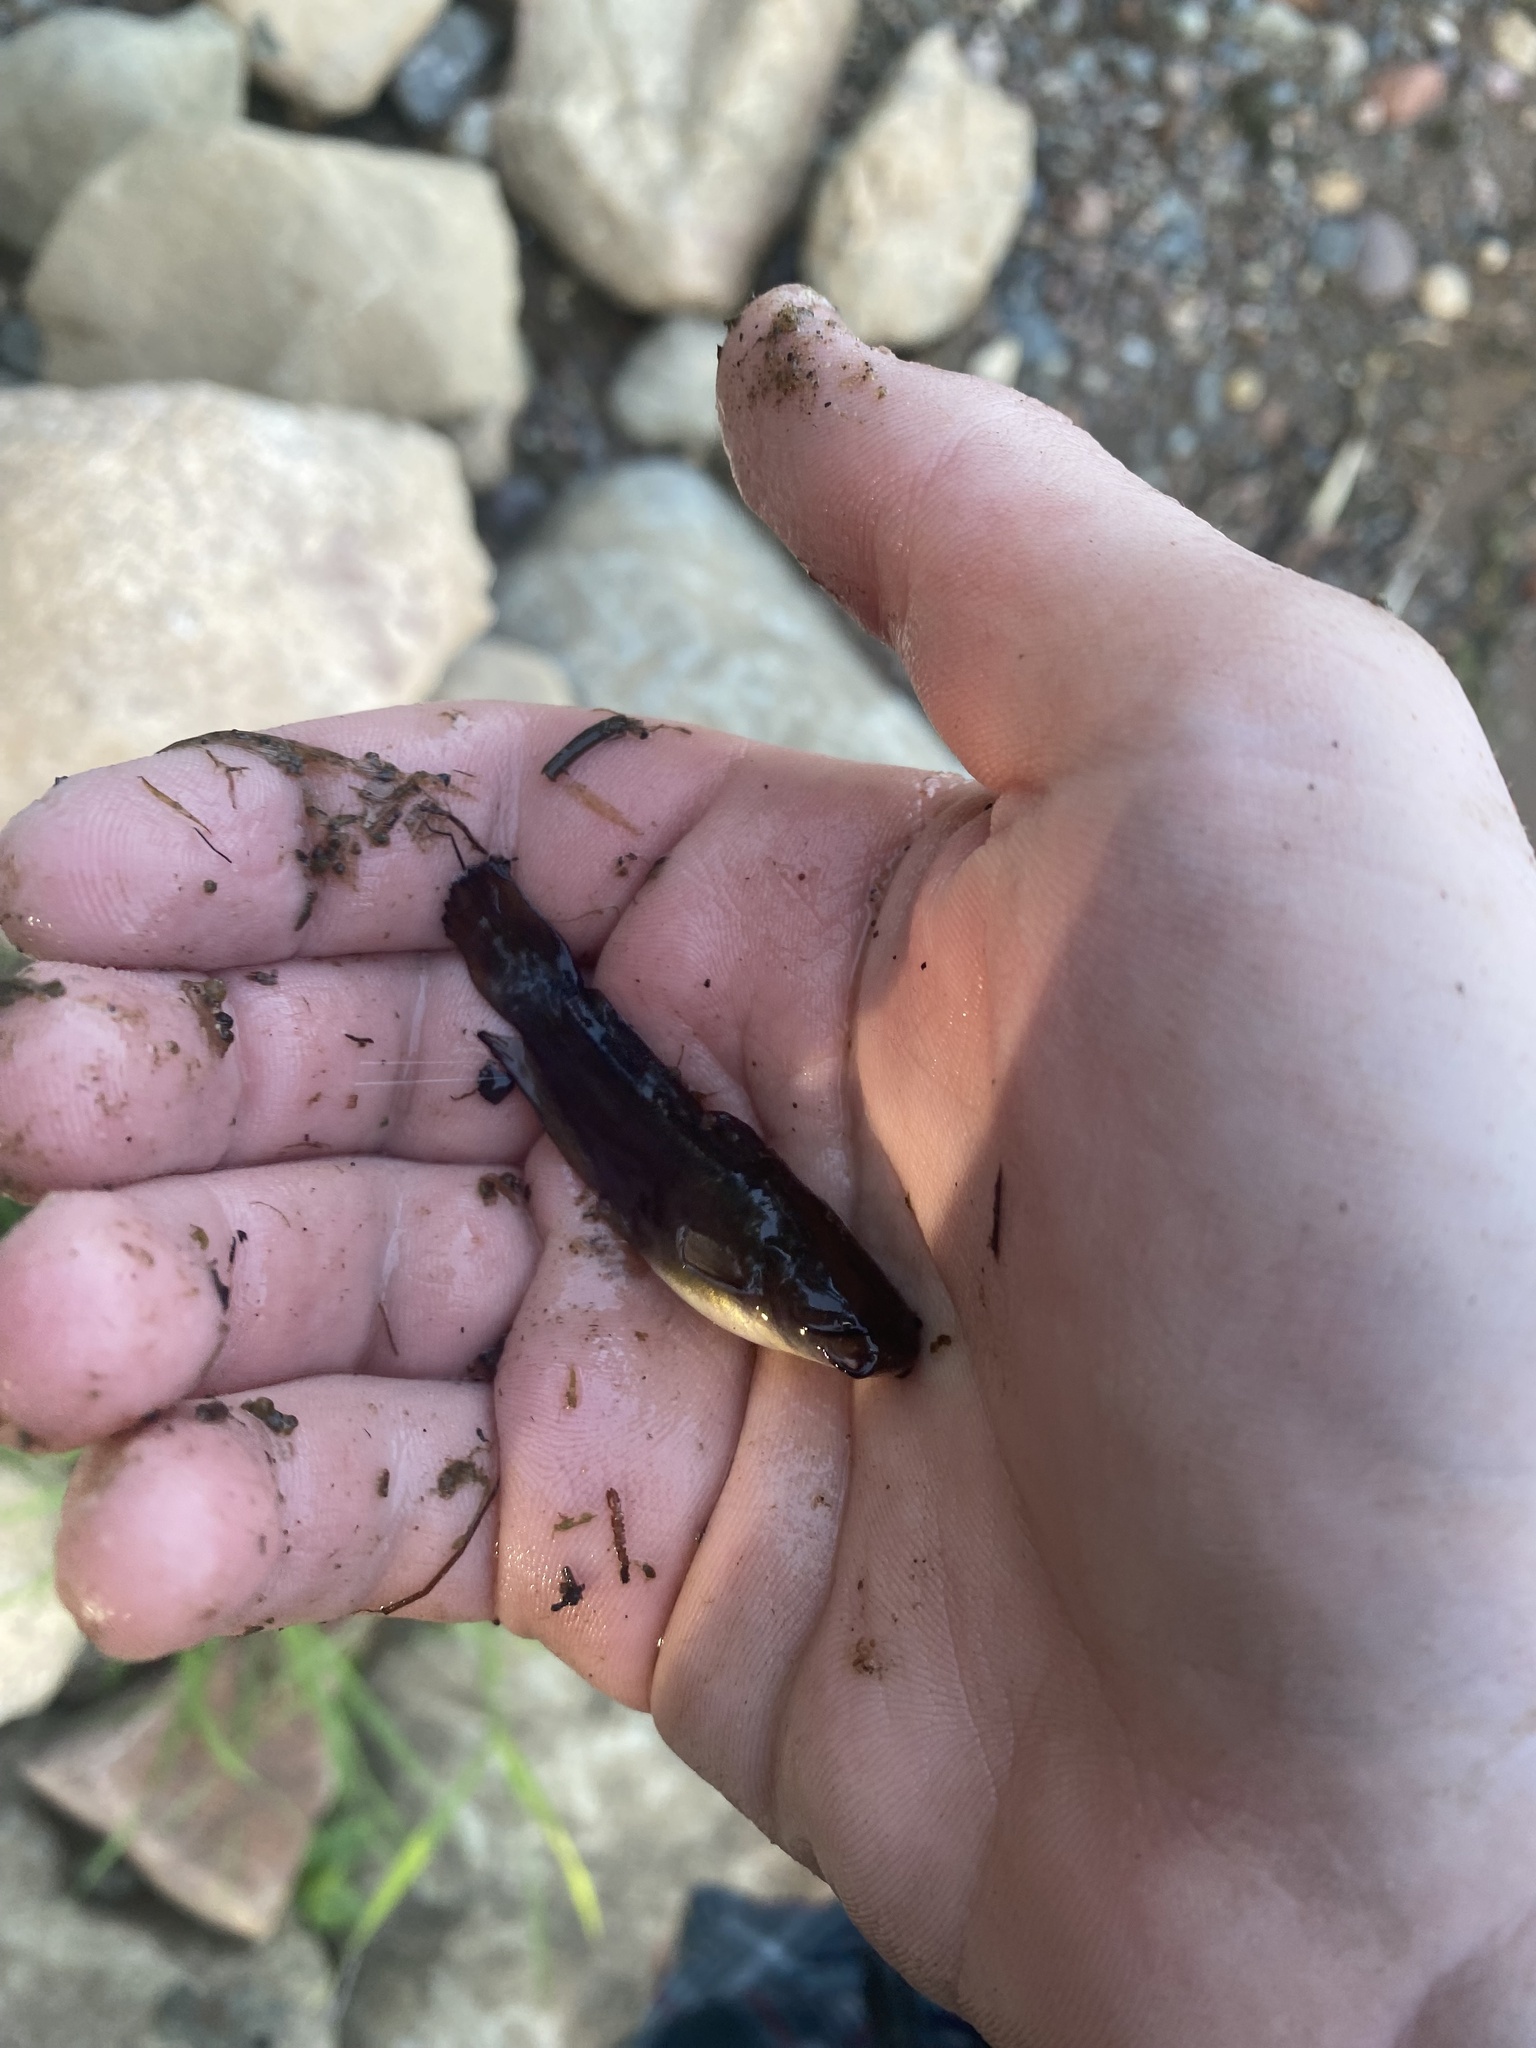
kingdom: Animalia
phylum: Chordata
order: Siluriformes
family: Ictaluridae
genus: Ameiurus
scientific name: Ameiurus natalis
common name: Yellow bullhead
